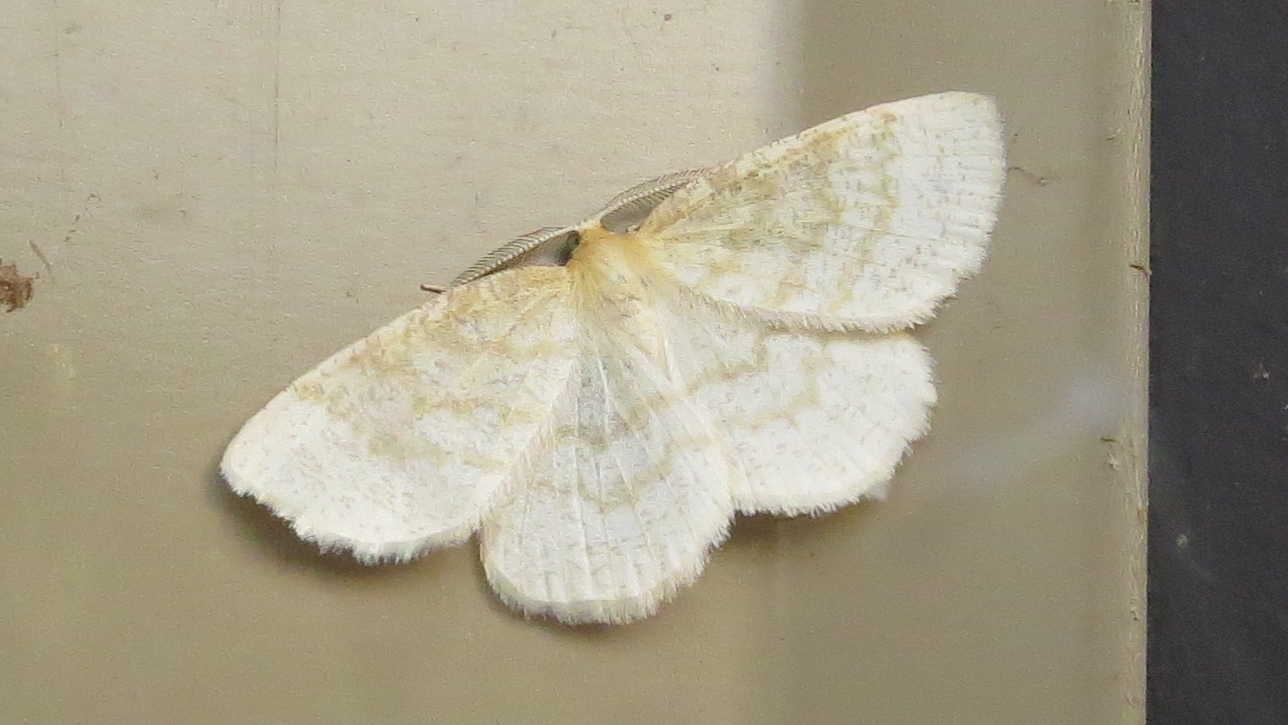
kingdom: Animalia
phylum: Arthropoda
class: Insecta
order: Lepidoptera
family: Geometridae
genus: Cabera
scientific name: Cabera erythemaria
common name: Yellow-dusted cream moth
